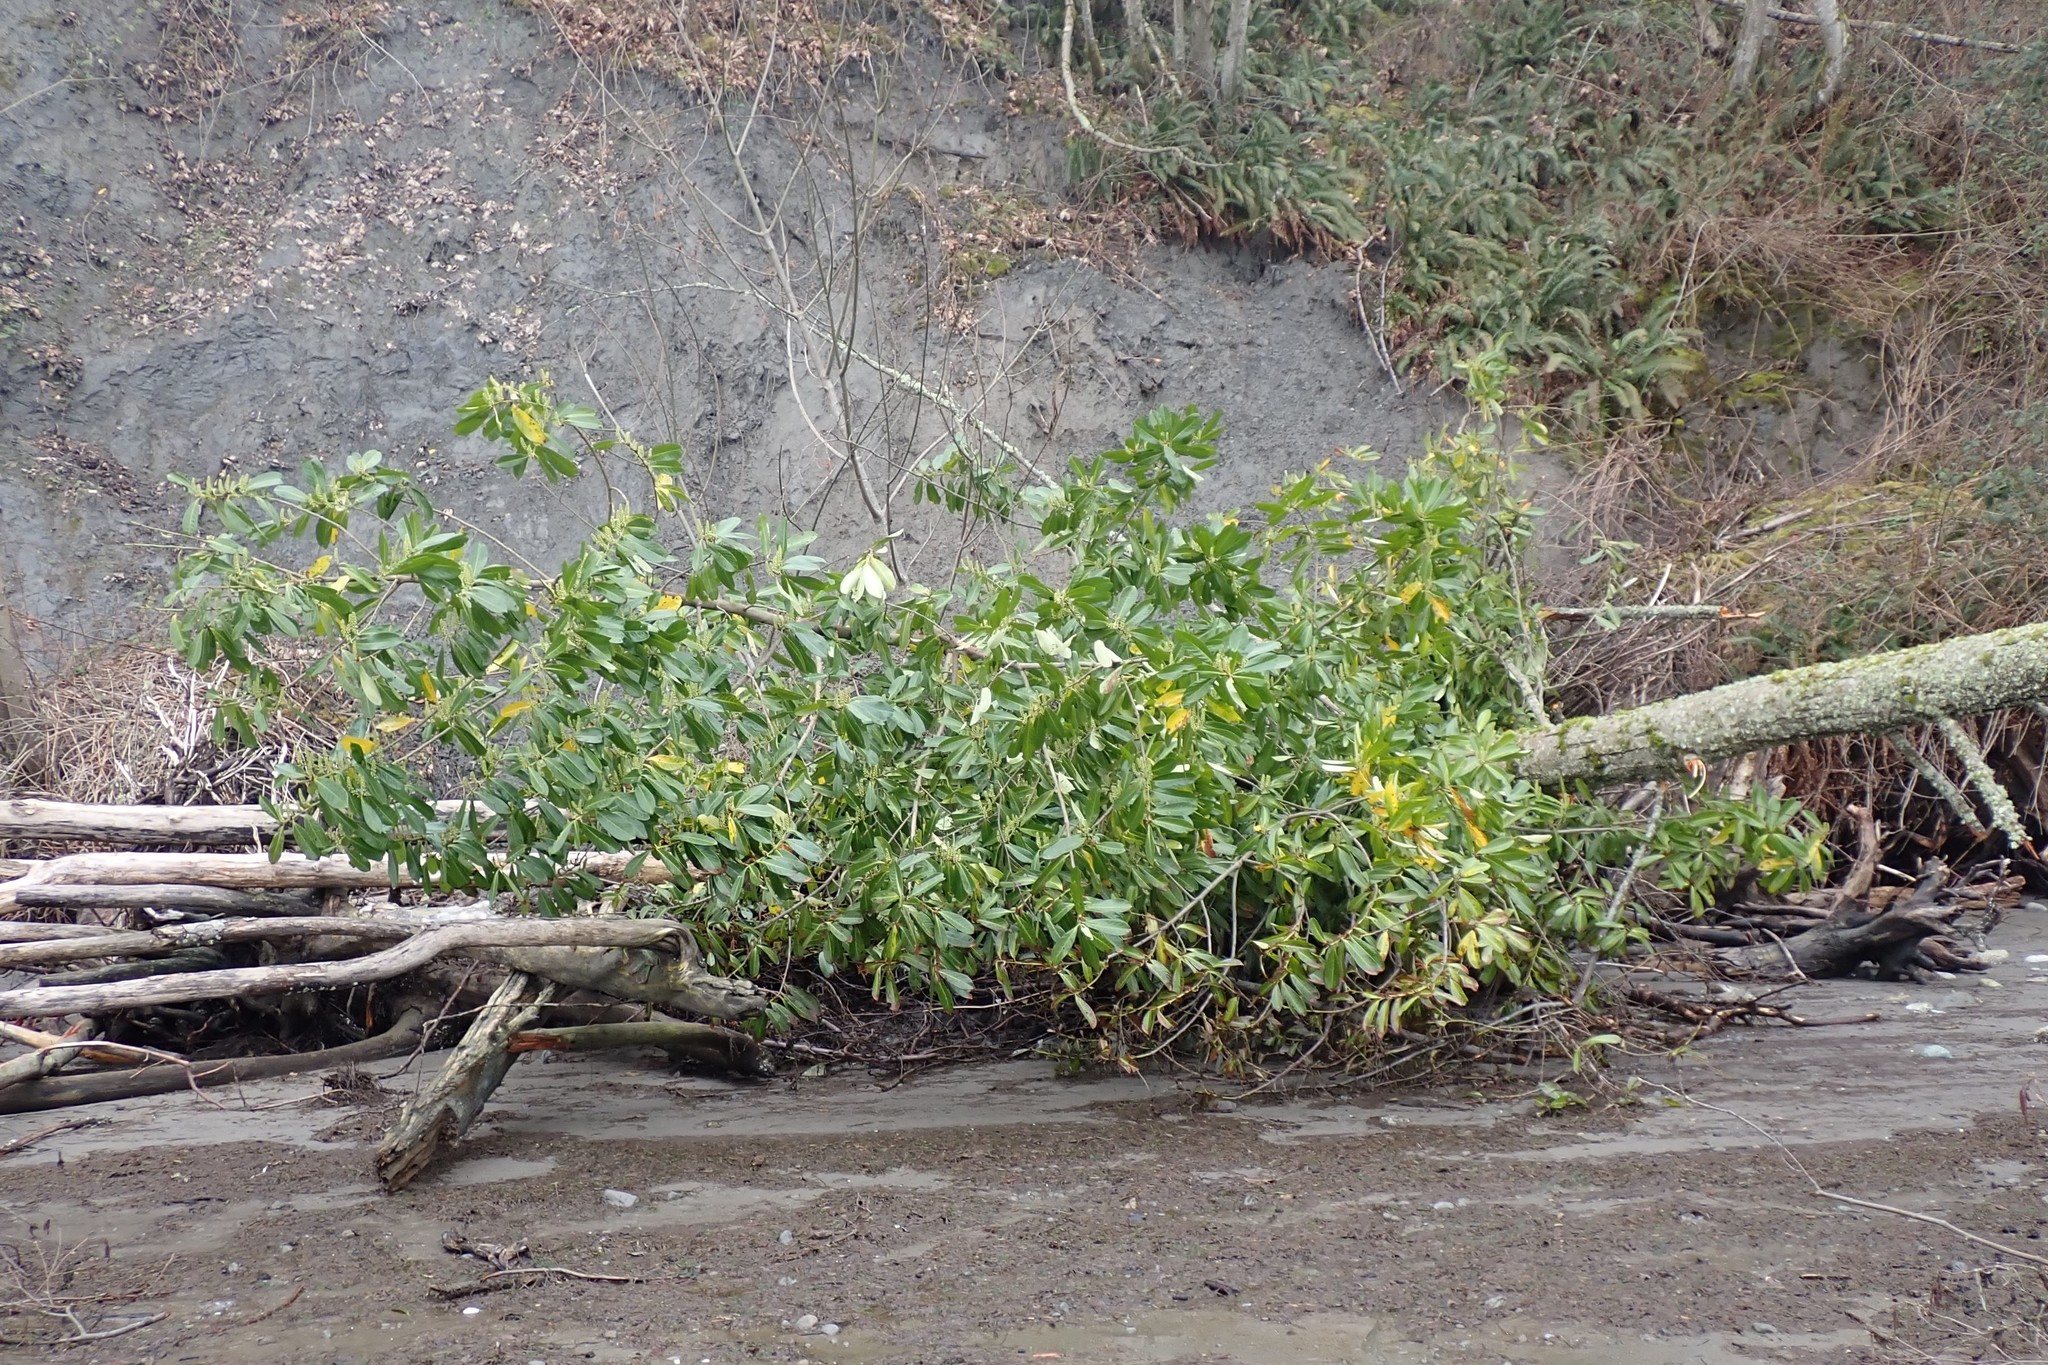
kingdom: Plantae
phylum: Tracheophyta
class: Magnoliopsida
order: Rosales
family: Rosaceae
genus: Prunus
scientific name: Prunus laurocerasus
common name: Cherry laurel
